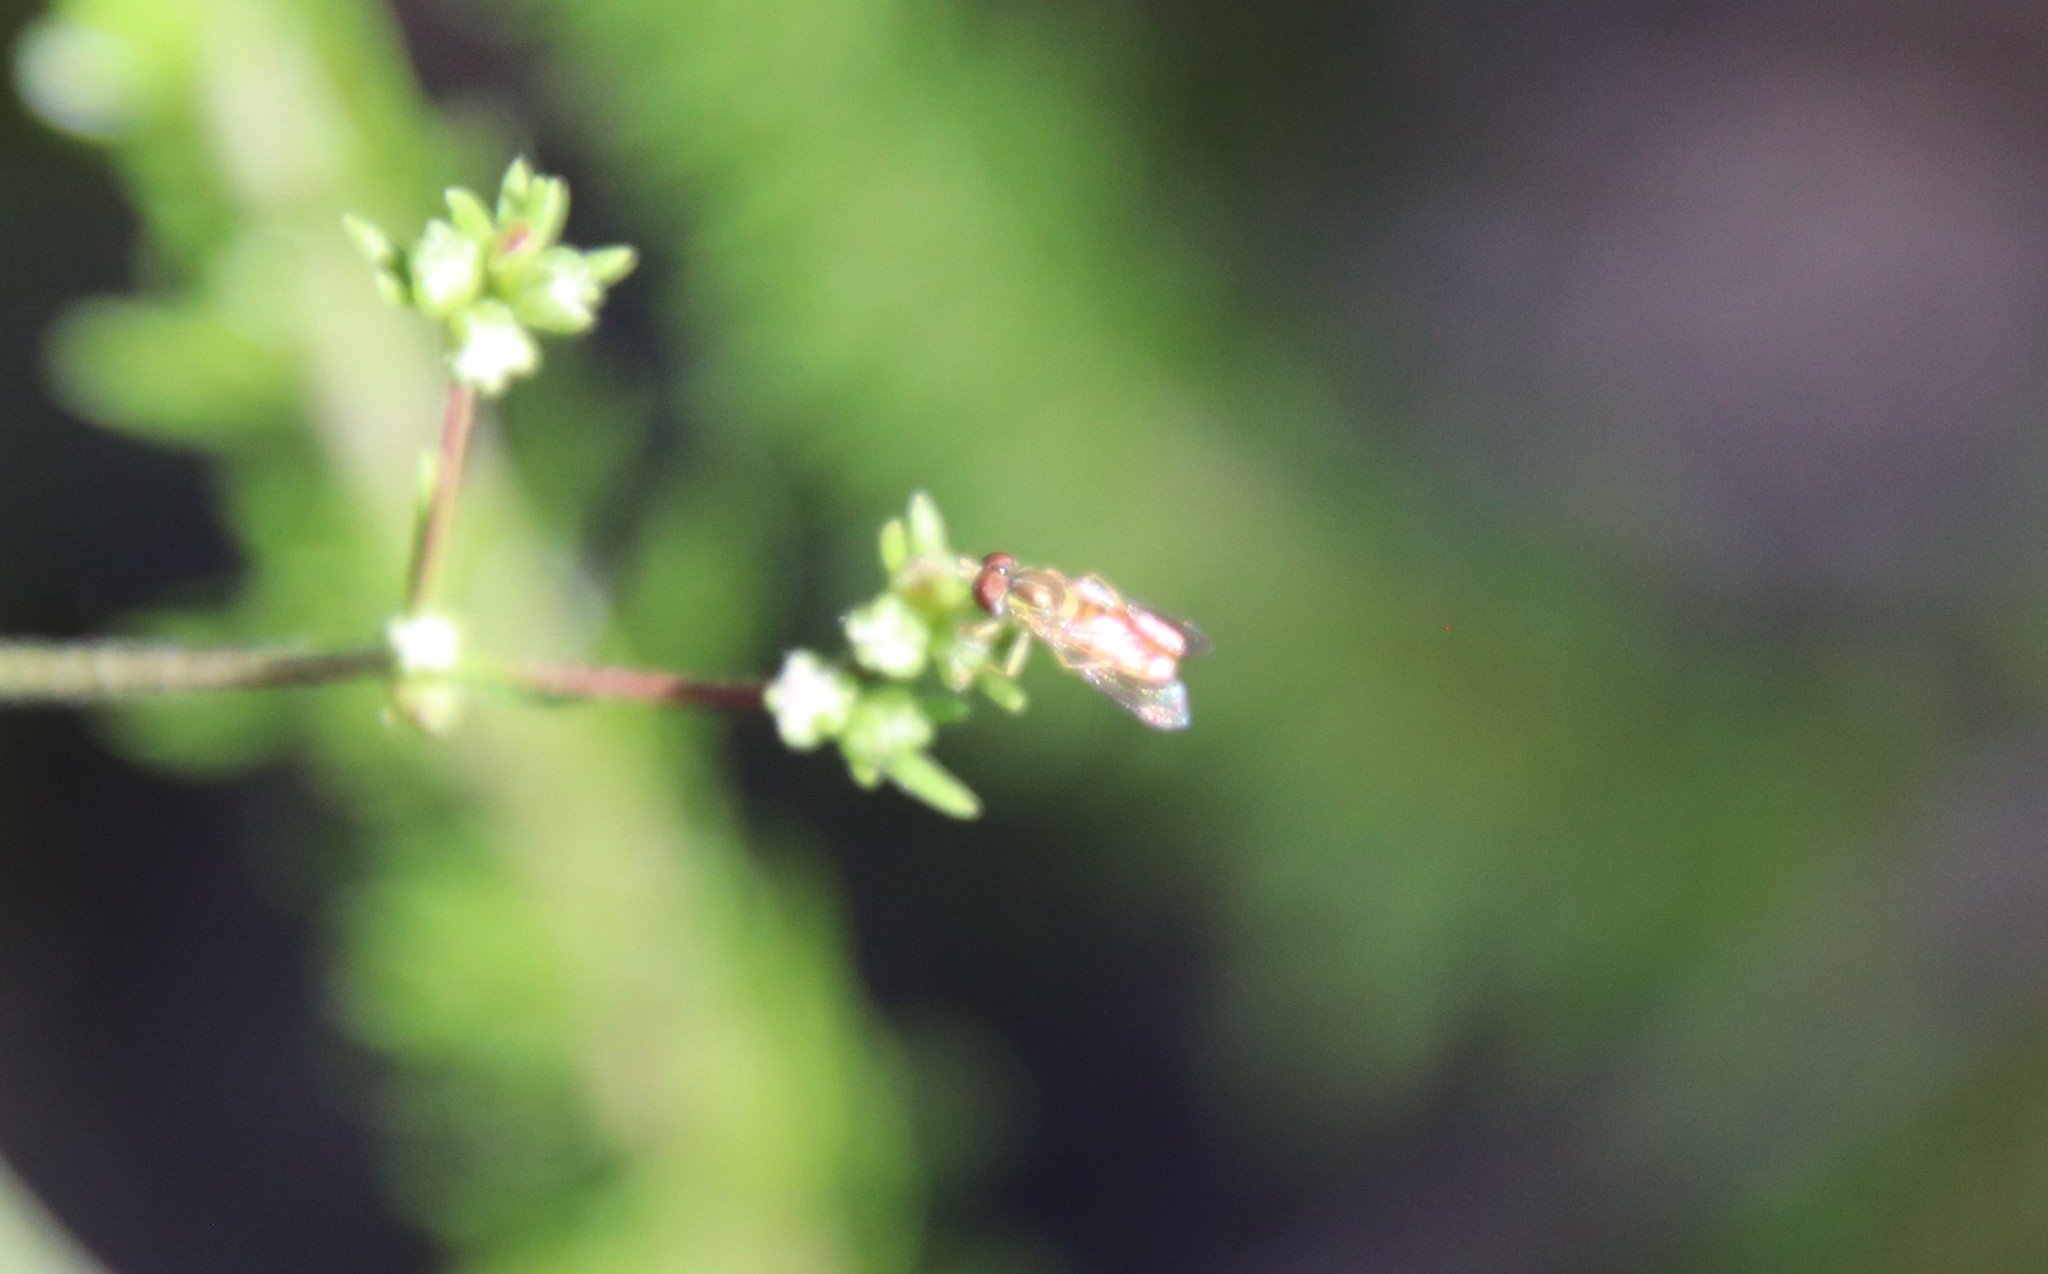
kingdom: Animalia
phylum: Arthropoda
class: Insecta
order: Diptera
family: Syrphidae
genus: Toxomerus
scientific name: Toxomerus marginatus
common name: Syrphid fly
